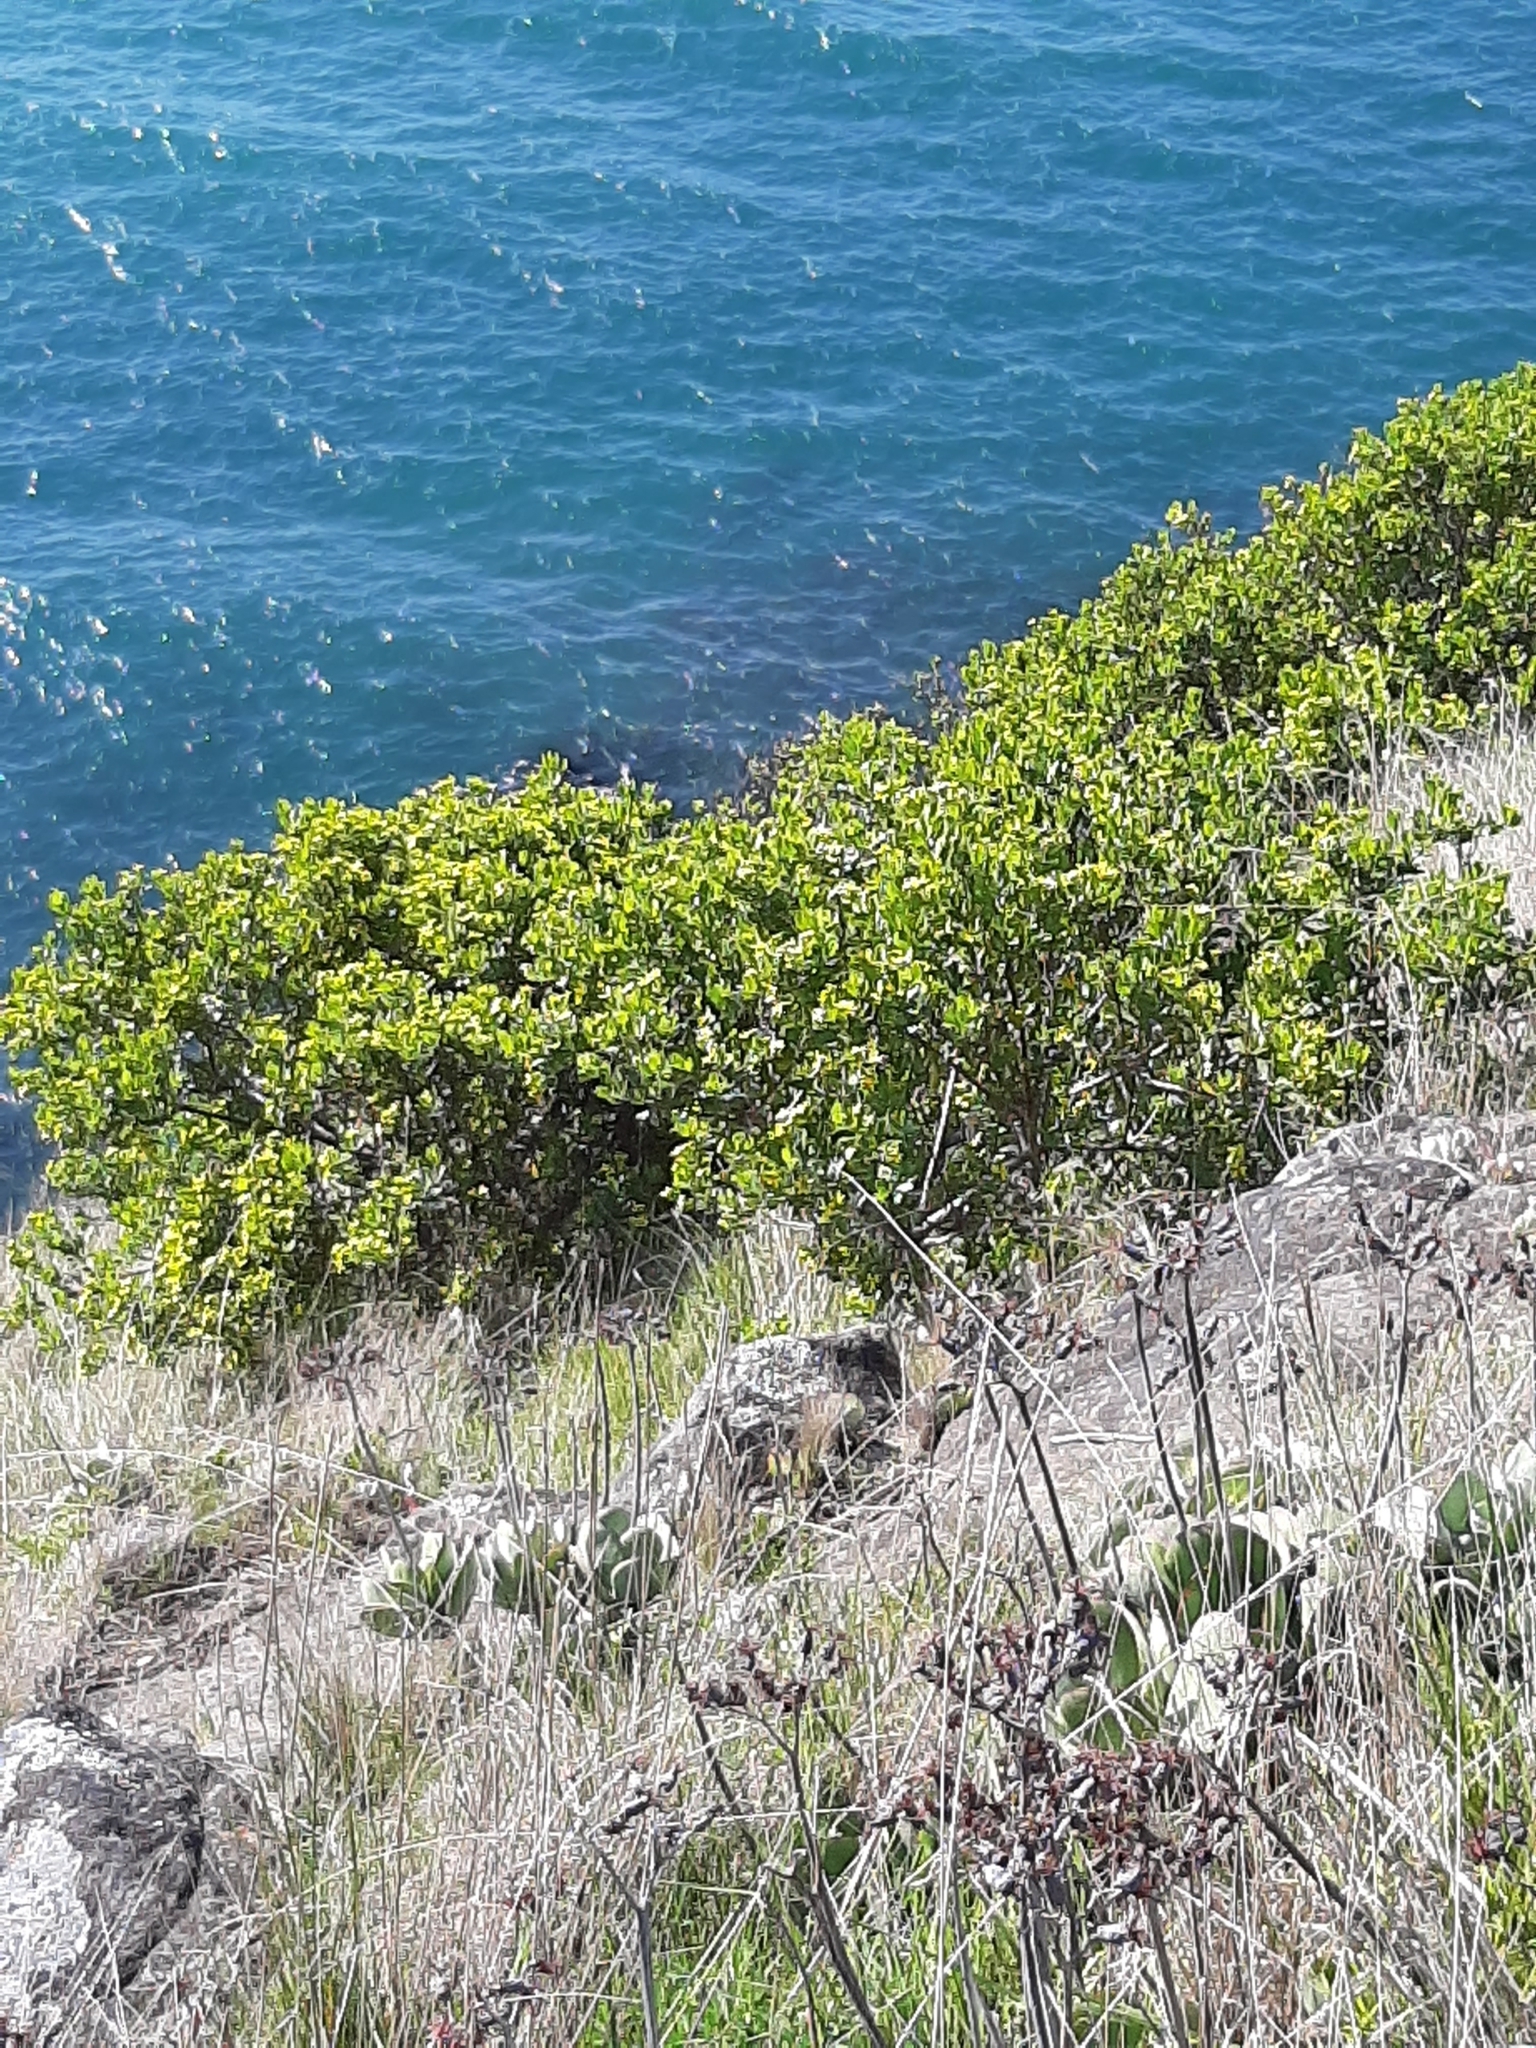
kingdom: Plantae
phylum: Tracheophyta
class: Magnoliopsida
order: Asterales
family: Asteraceae
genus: Osteospermum
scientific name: Osteospermum moniliferum
